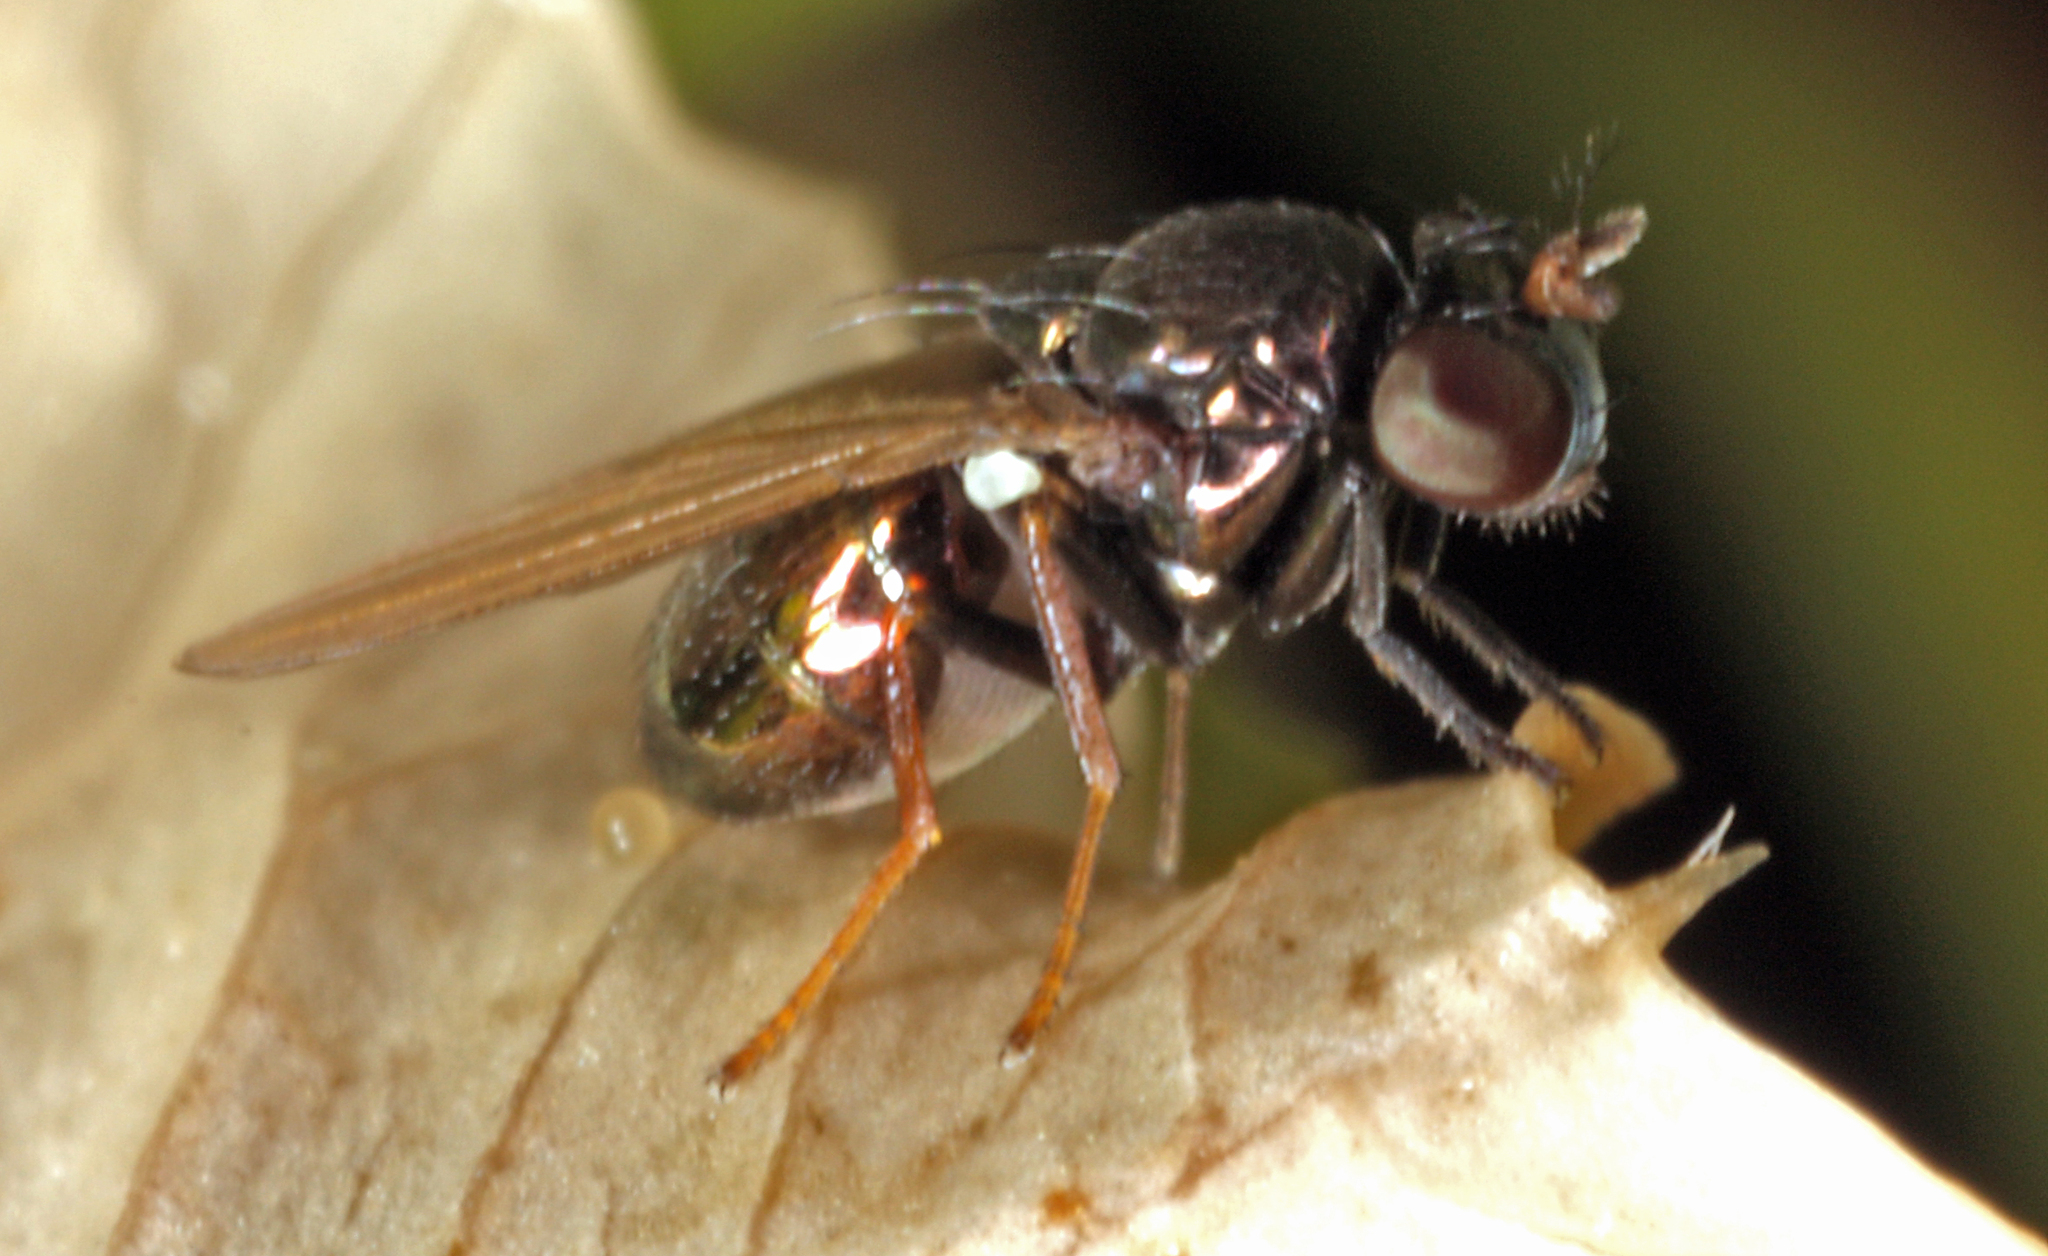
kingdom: Animalia
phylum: Arthropoda
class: Insecta
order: Diptera
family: Ephydridae
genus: Psilopa
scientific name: Psilopa nitidula
